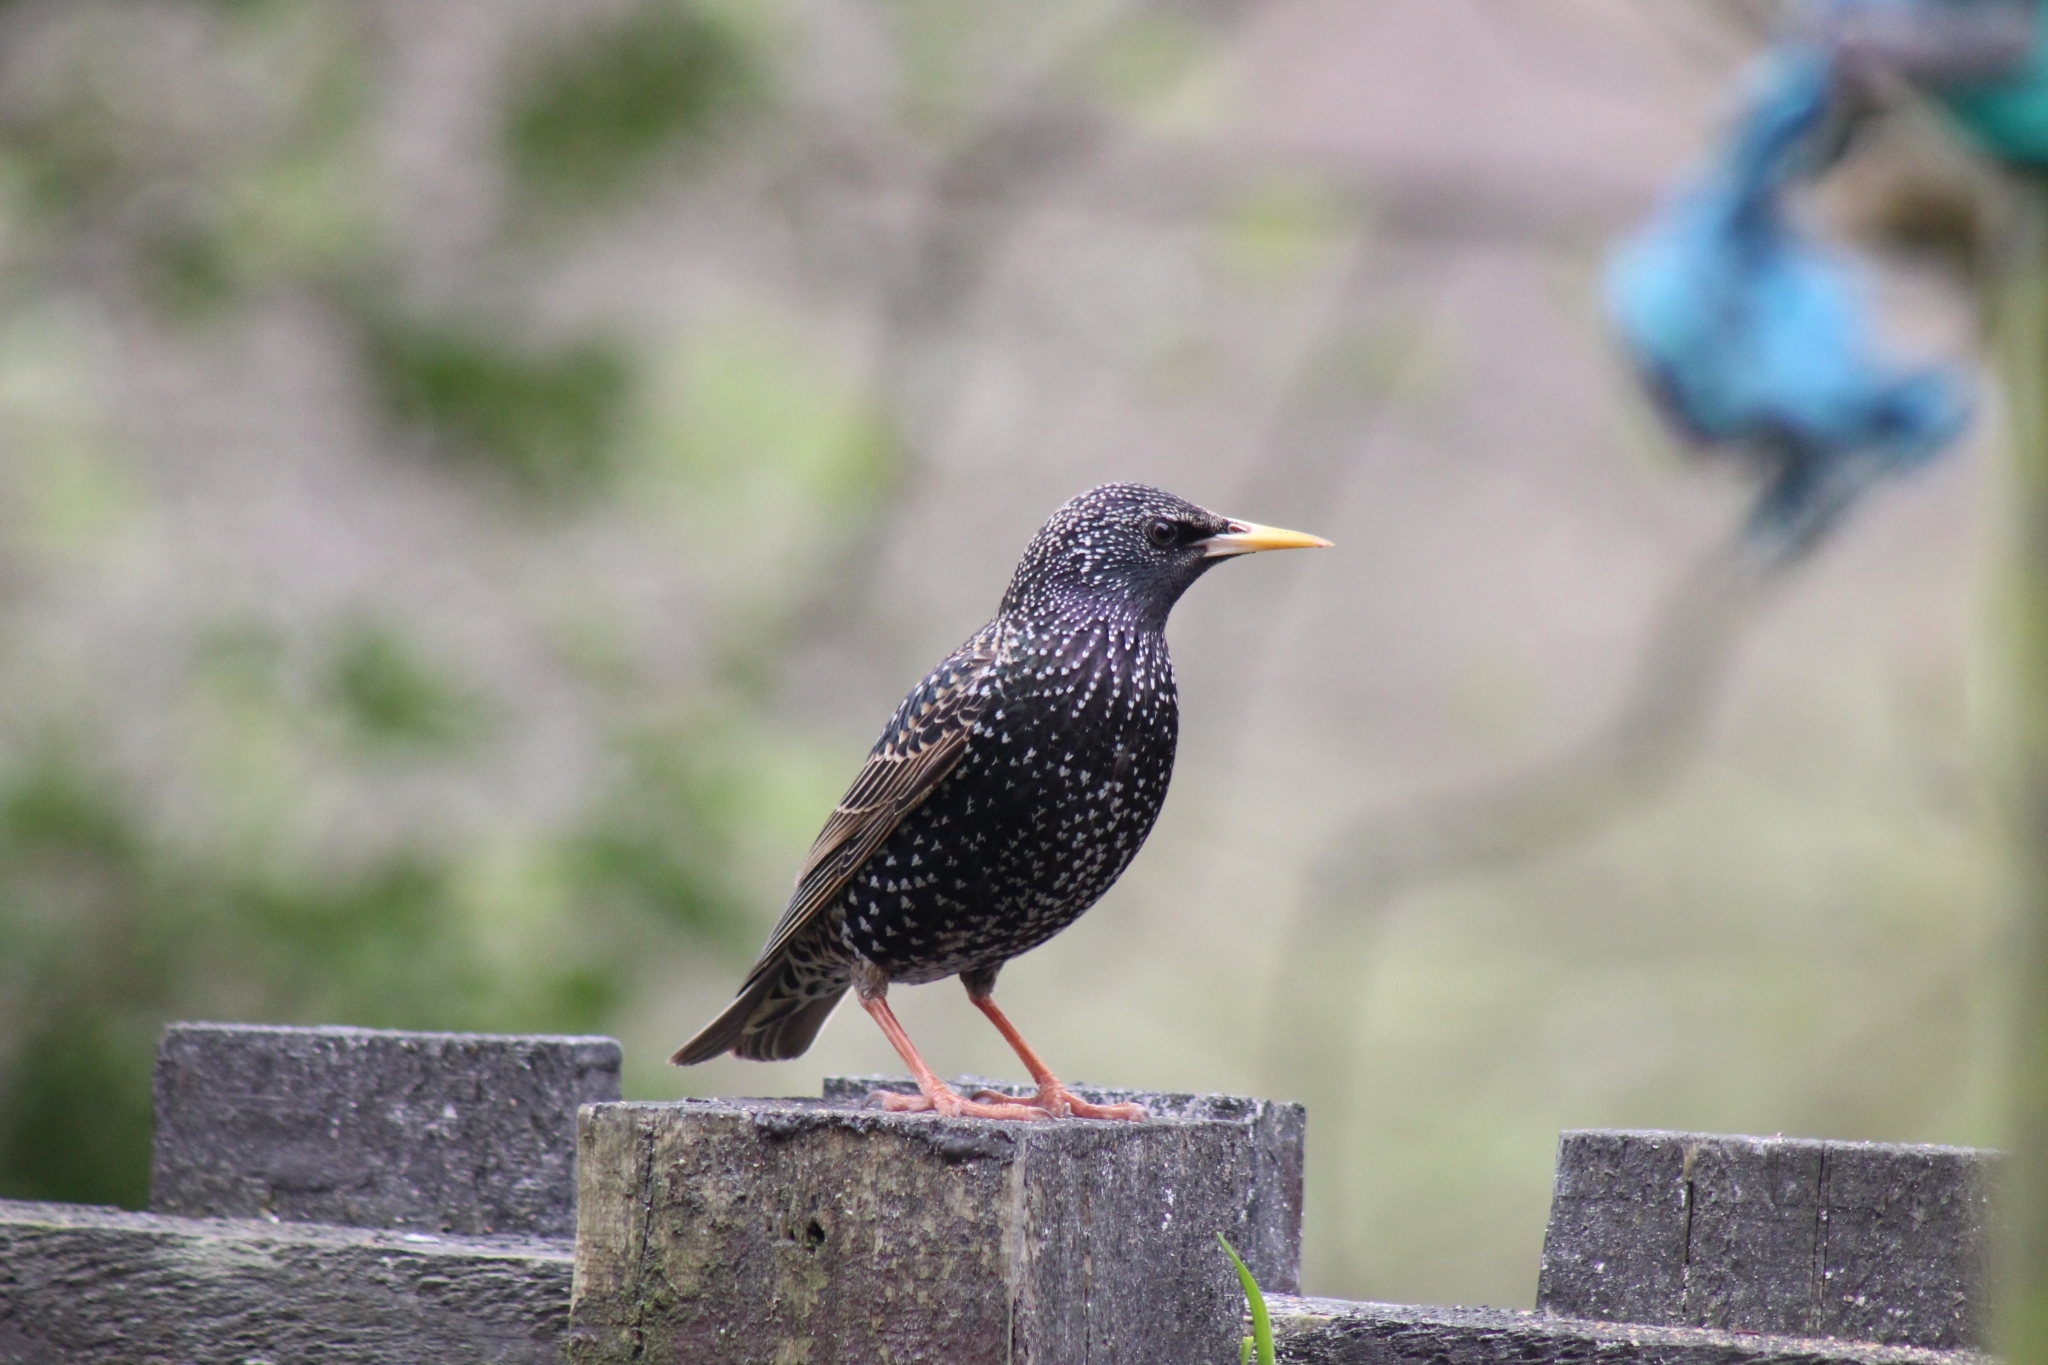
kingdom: Animalia
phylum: Chordata
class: Aves
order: Passeriformes
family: Sturnidae
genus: Sturnus
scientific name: Sturnus vulgaris
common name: Common starling
